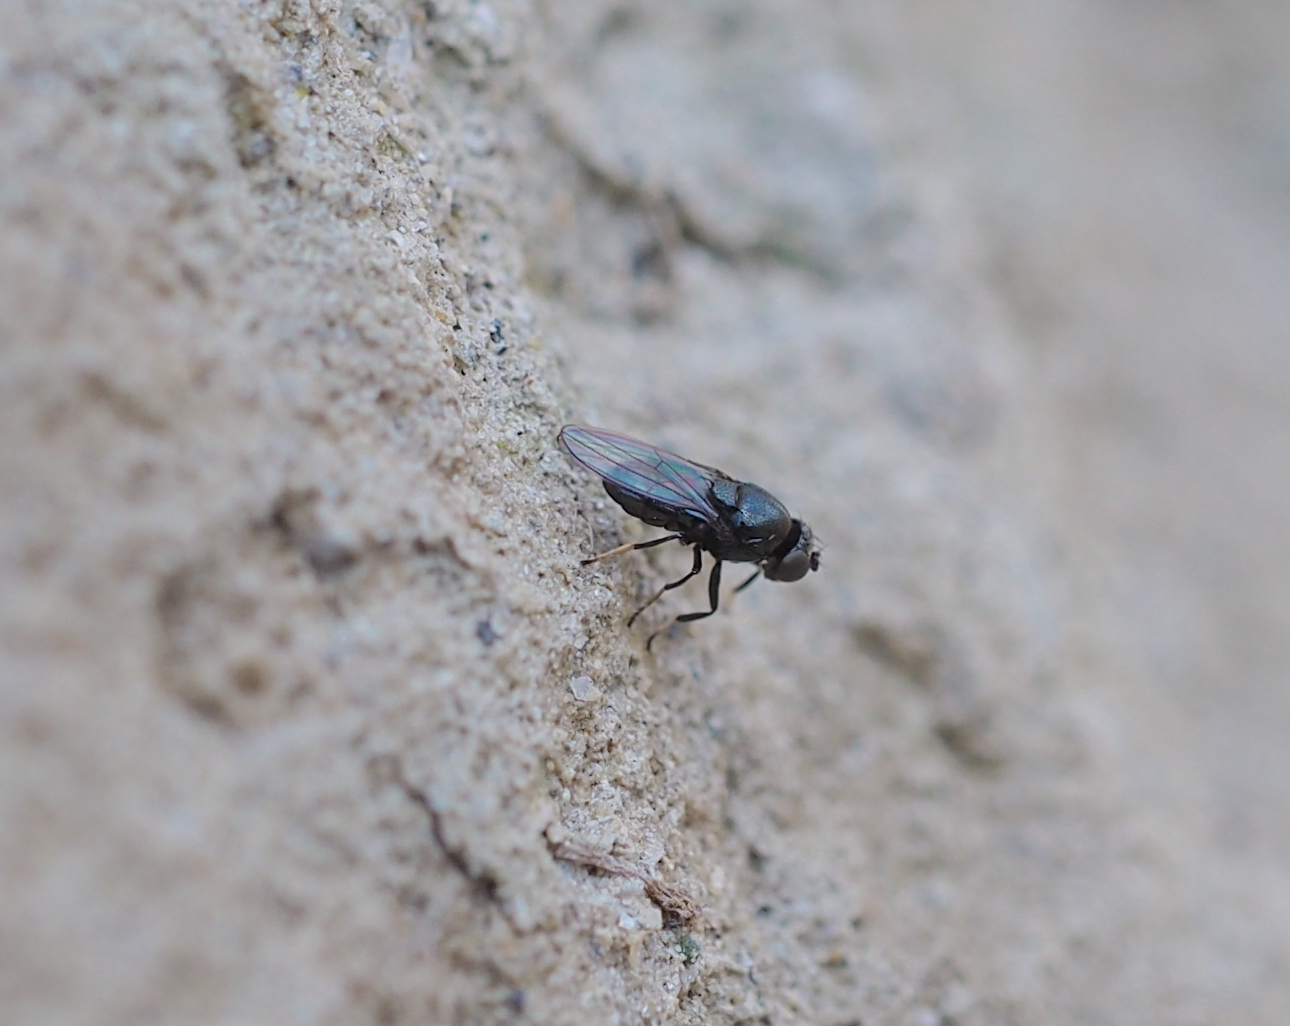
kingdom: Animalia
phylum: Arthropoda
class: Insecta
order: Diptera
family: Ephydridae
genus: Athyroglossa
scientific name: Athyroglossa glabra
